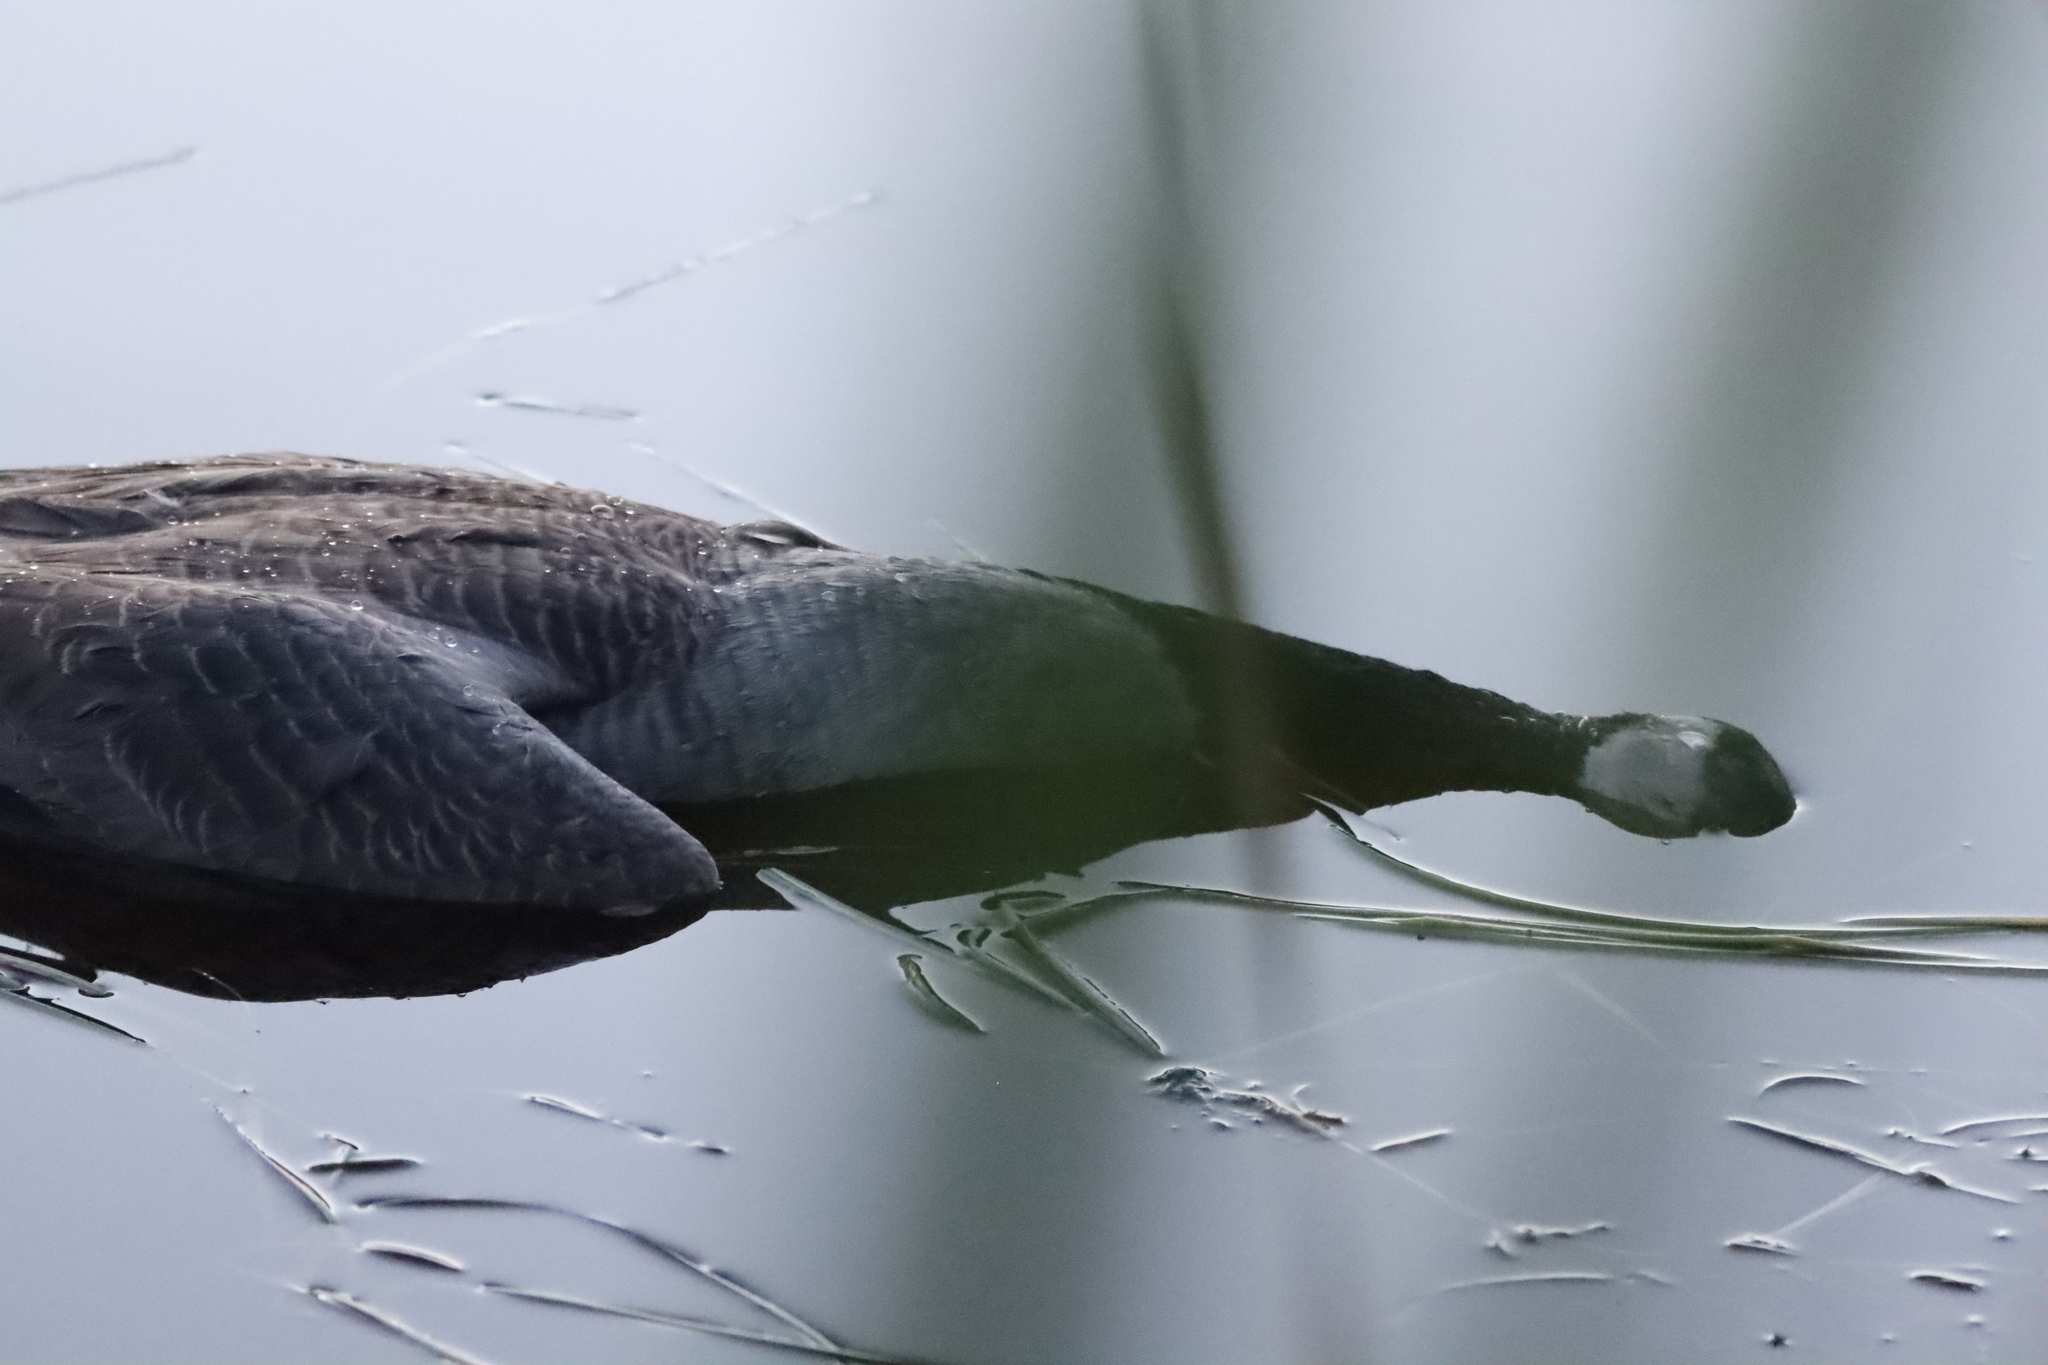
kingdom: Animalia
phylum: Chordata
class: Aves
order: Anseriformes
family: Anatidae
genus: Branta
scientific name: Branta canadensis
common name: Canada goose
